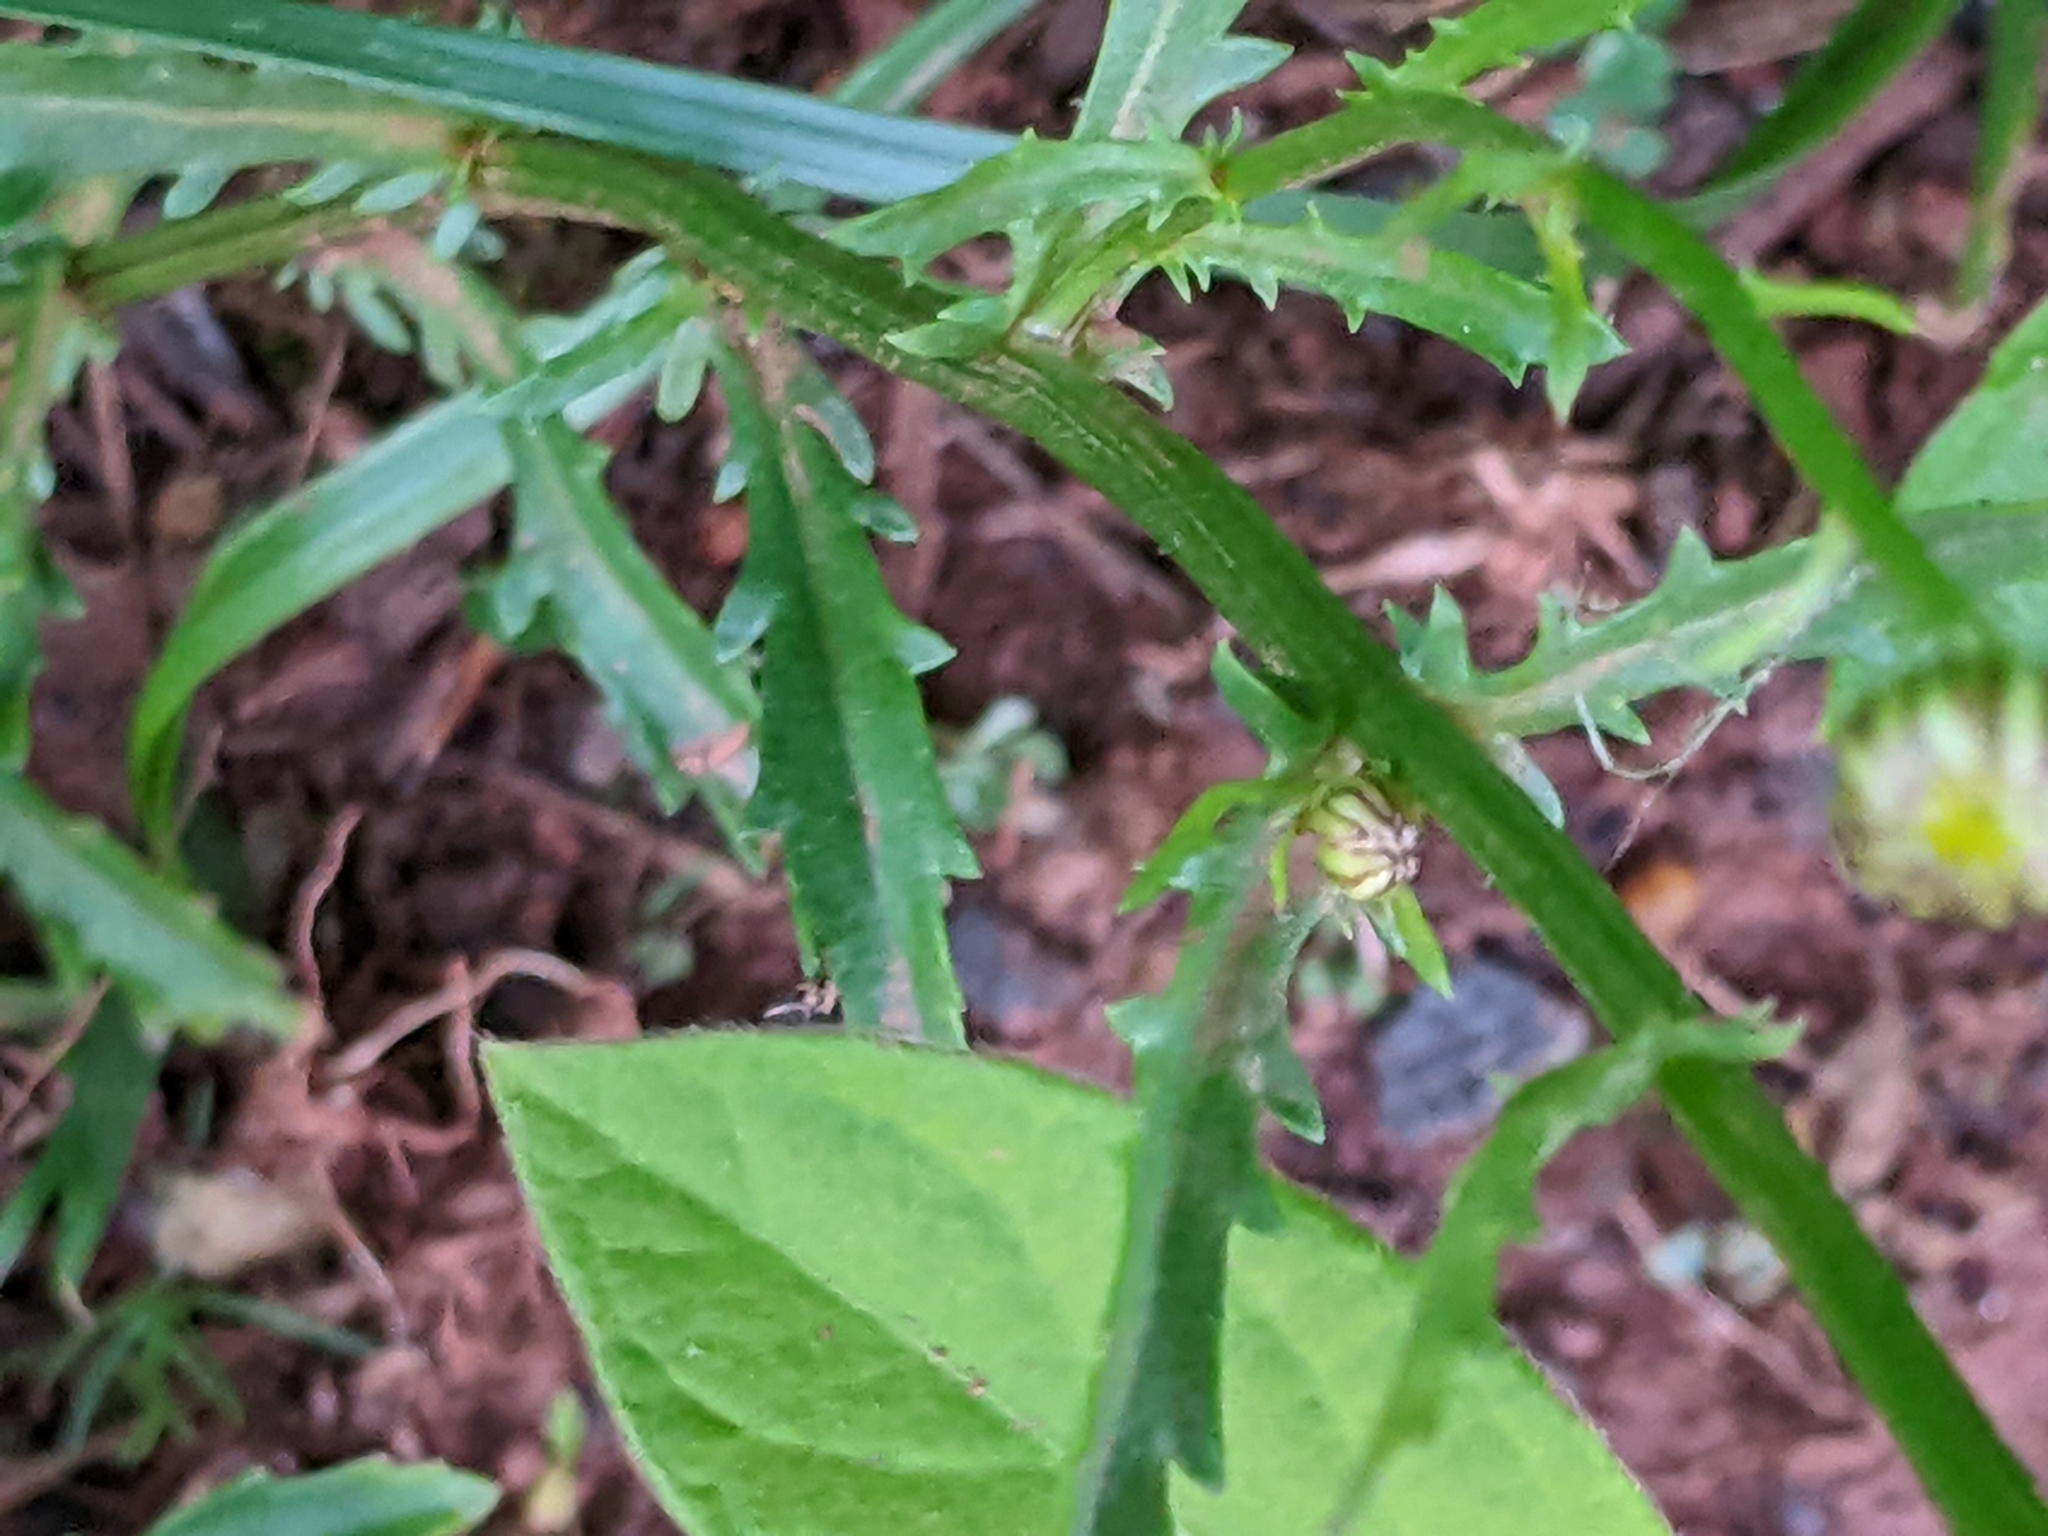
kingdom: Plantae
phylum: Tracheophyta
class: Magnoliopsida
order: Asterales
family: Asteraceae
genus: Leucanthemum
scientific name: Leucanthemum vulgare
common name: Oxeye daisy
